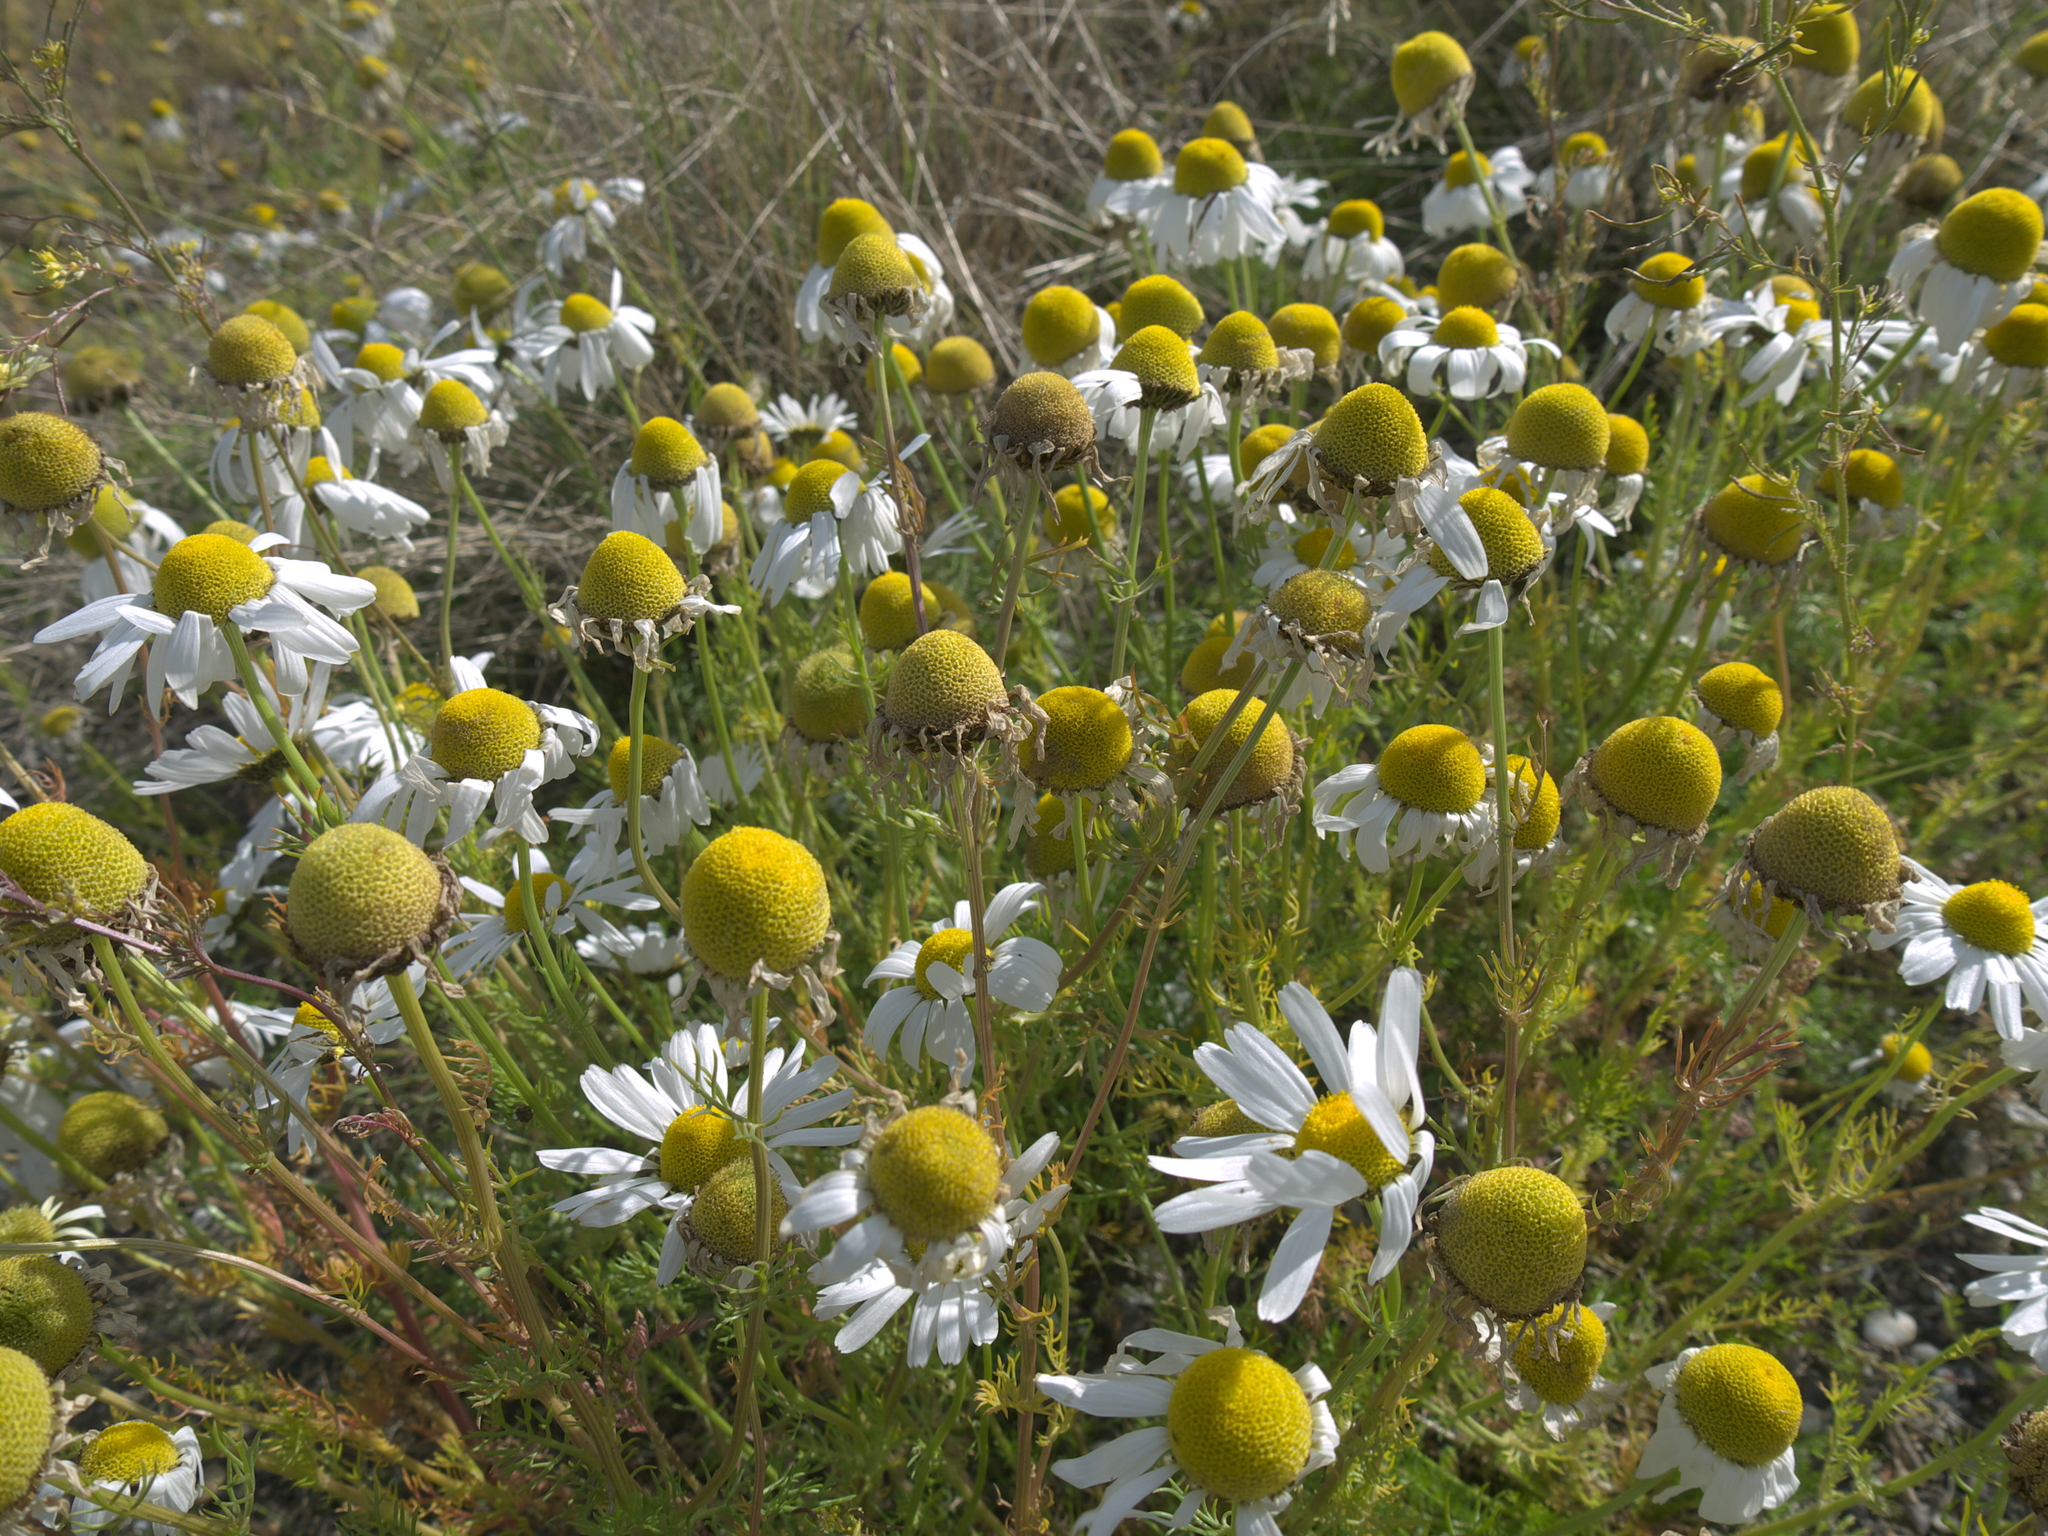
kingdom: Plantae
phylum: Tracheophyta
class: Magnoliopsida
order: Asterales
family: Asteraceae
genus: Tripleurospermum
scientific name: Tripleurospermum maritimum
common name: Sea mayweed
